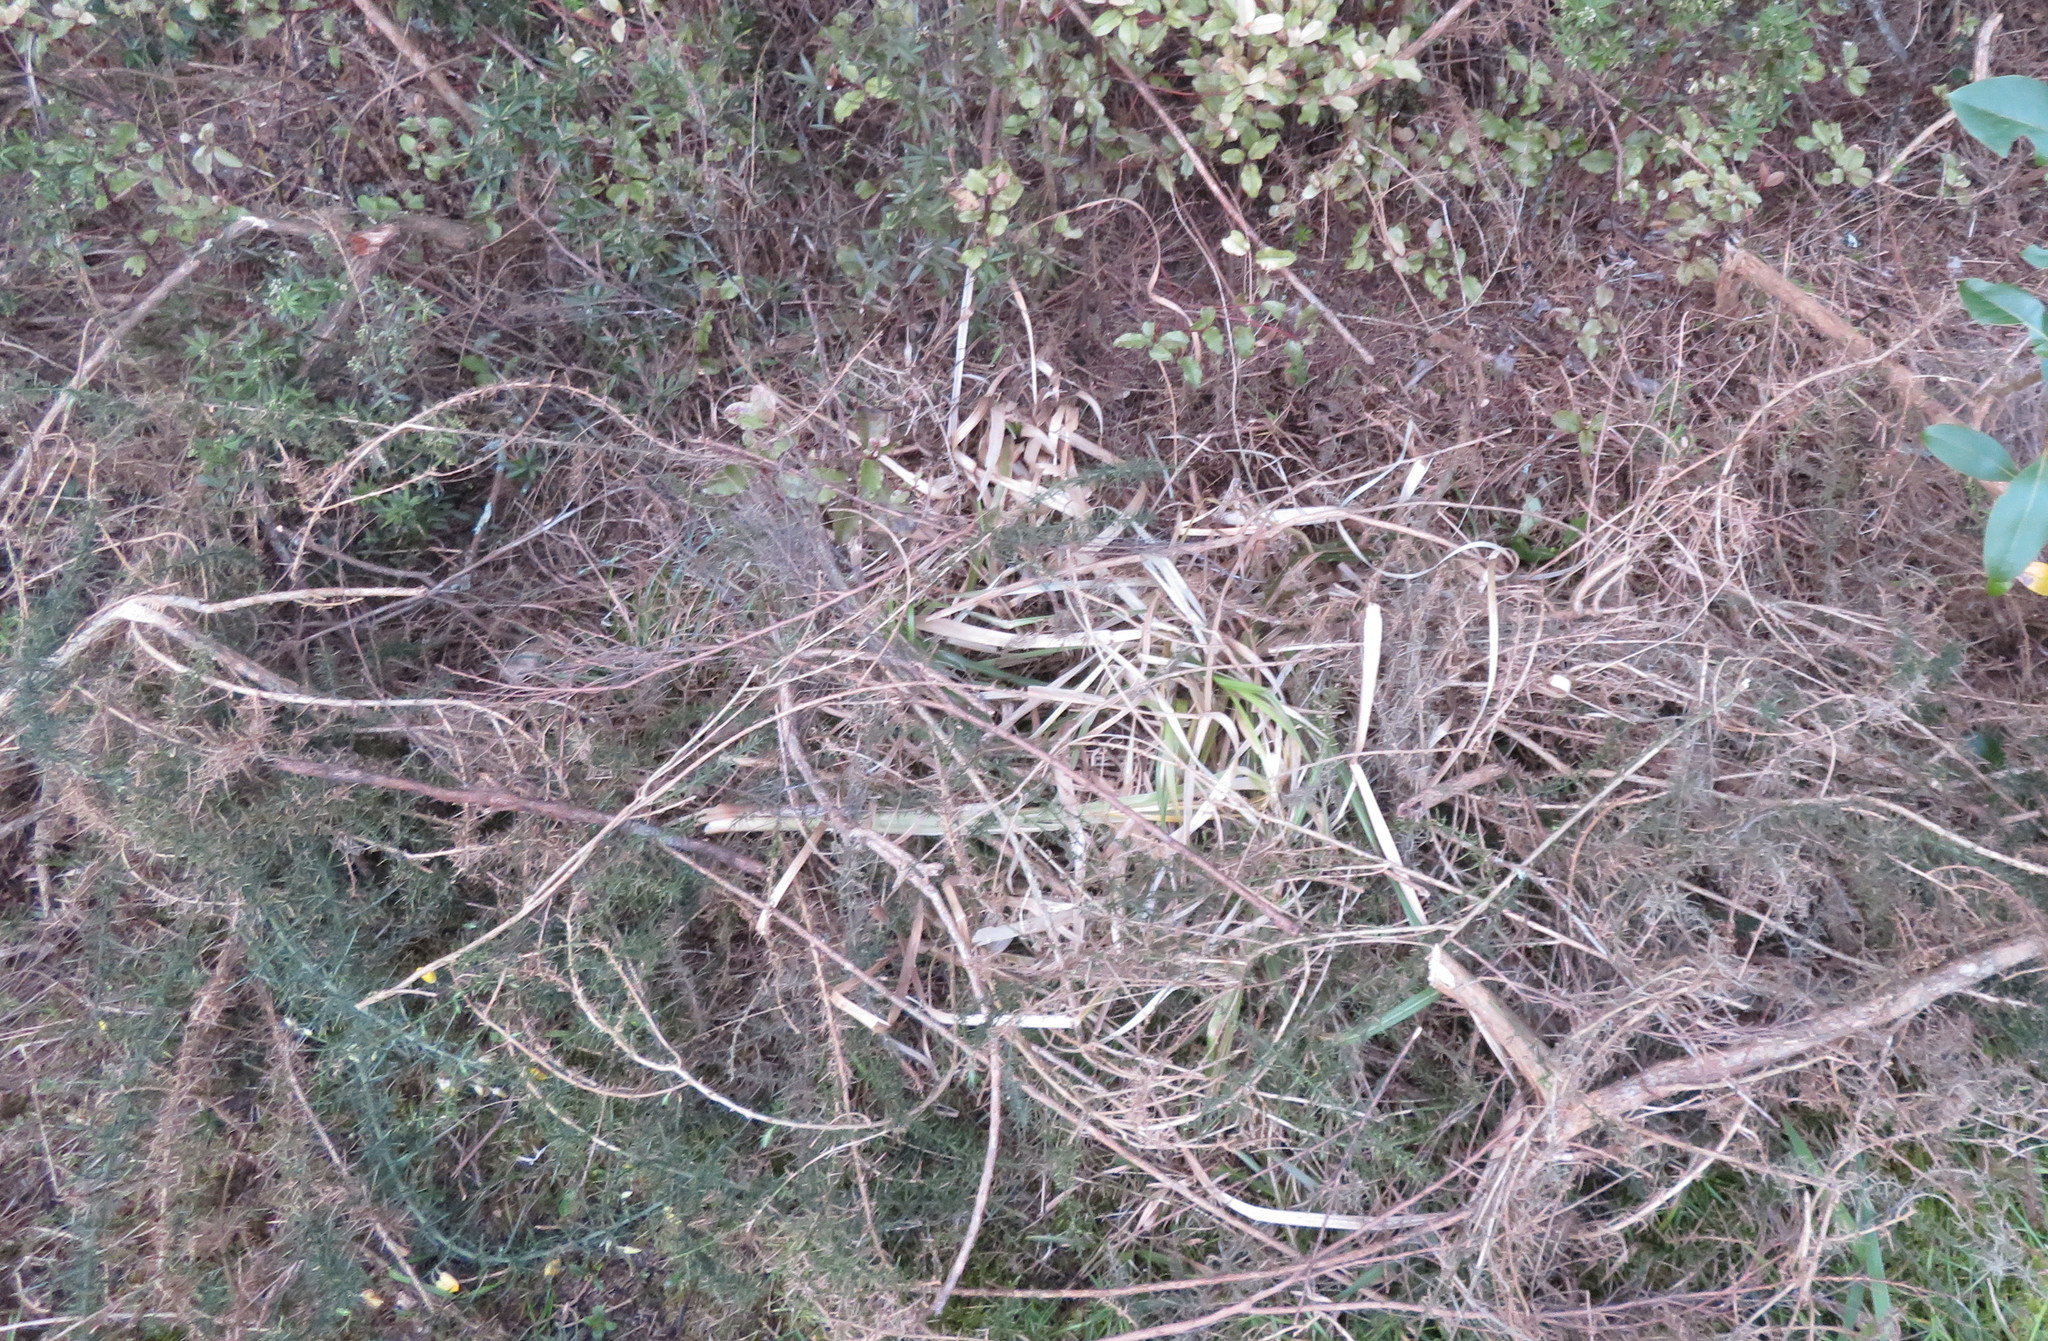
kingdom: Plantae
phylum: Tracheophyta
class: Liliopsida
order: Poales
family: Poaceae
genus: Cortaderia
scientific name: Cortaderia selloana
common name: Uruguayan pampas grass
